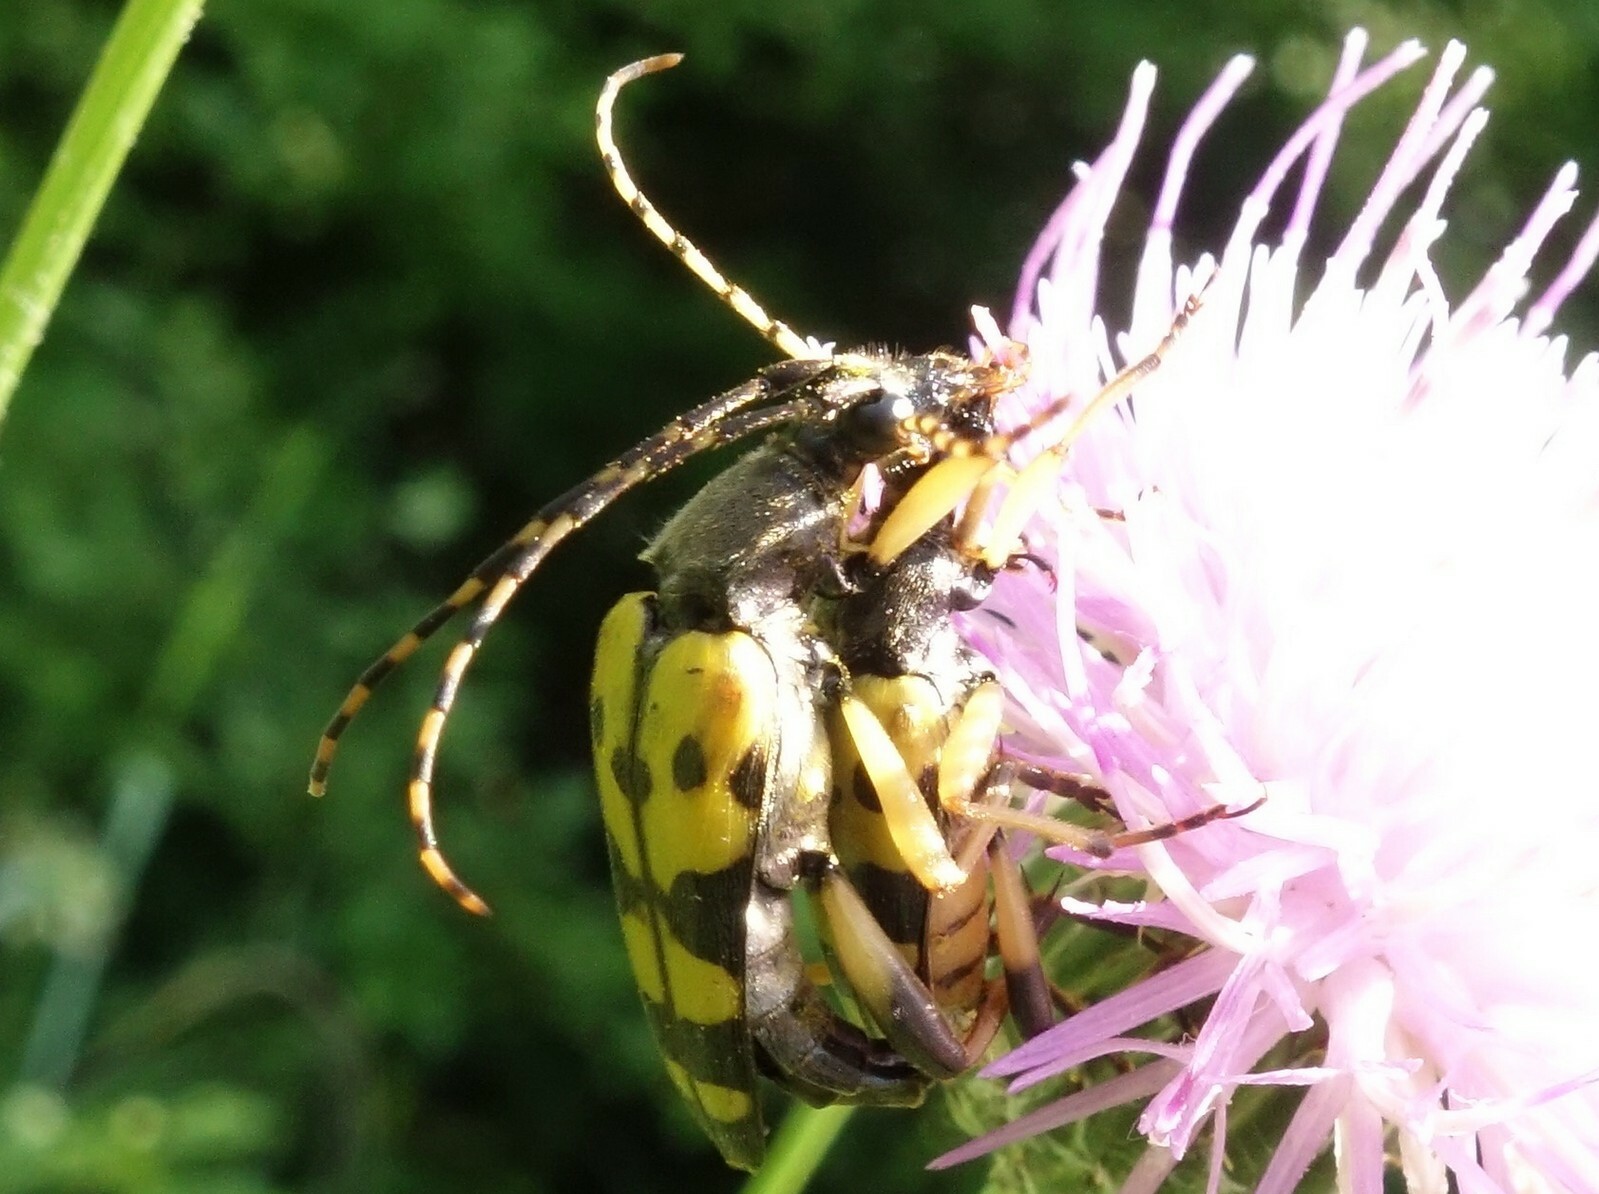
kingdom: Animalia
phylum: Arthropoda
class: Insecta
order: Coleoptera
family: Cerambycidae
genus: Rutpela
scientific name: Rutpela maculata
